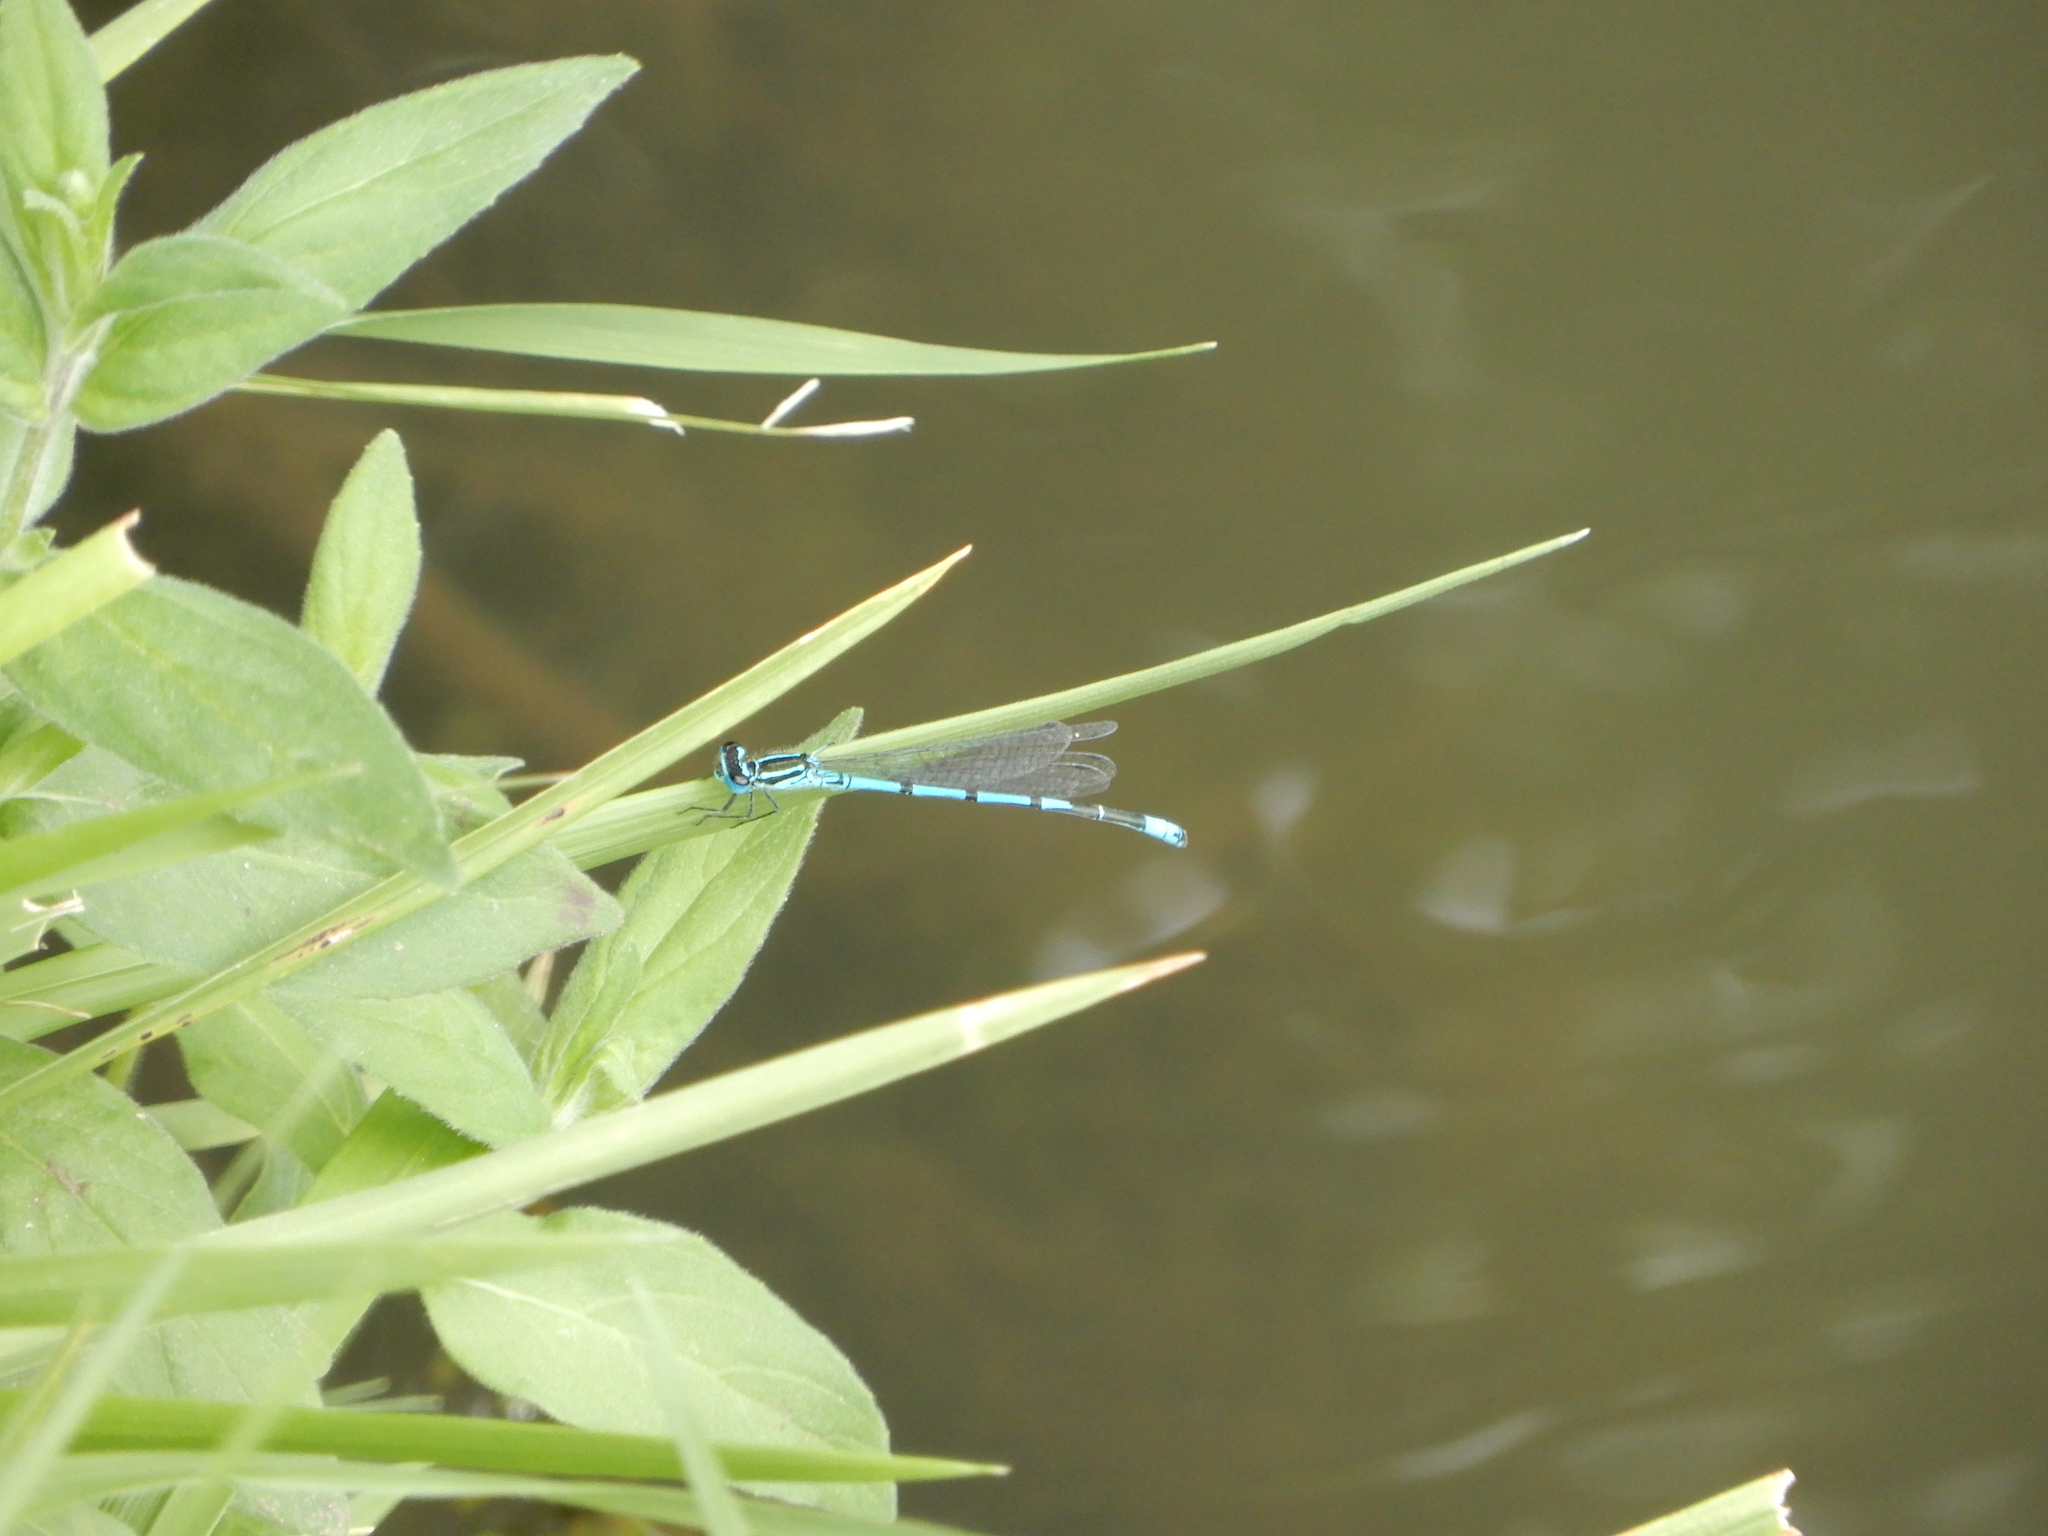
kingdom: Animalia
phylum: Arthropoda
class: Insecta
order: Odonata
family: Coenagrionidae
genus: Coenagrion
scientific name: Coenagrion puella
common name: Azure damselfly
